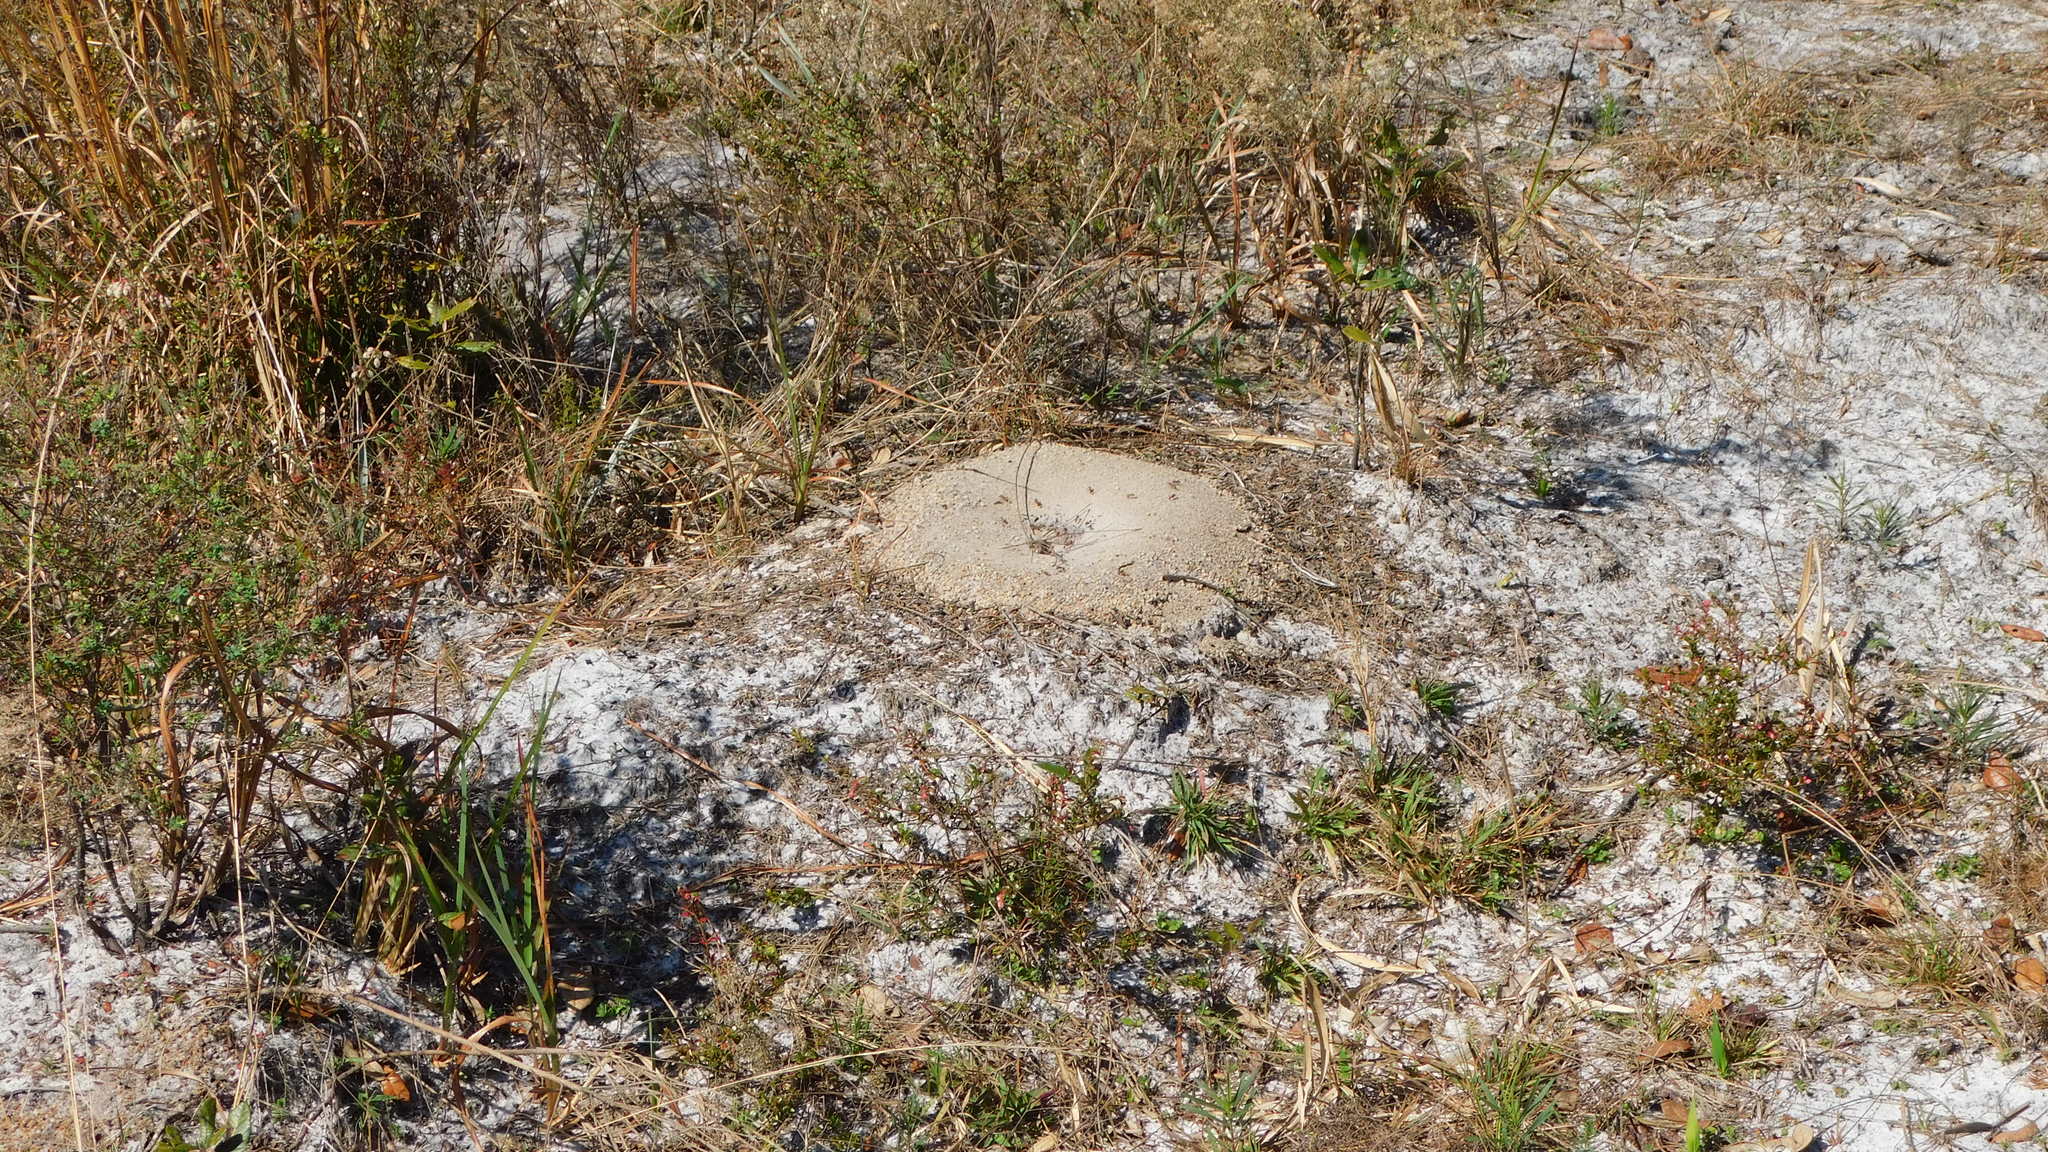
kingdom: Animalia
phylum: Arthropoda
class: Insecta
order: Hymenoptera
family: Formicidae
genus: Pogonomyrmex
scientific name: Pogonomyrmex badius
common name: Florida harvester ant
